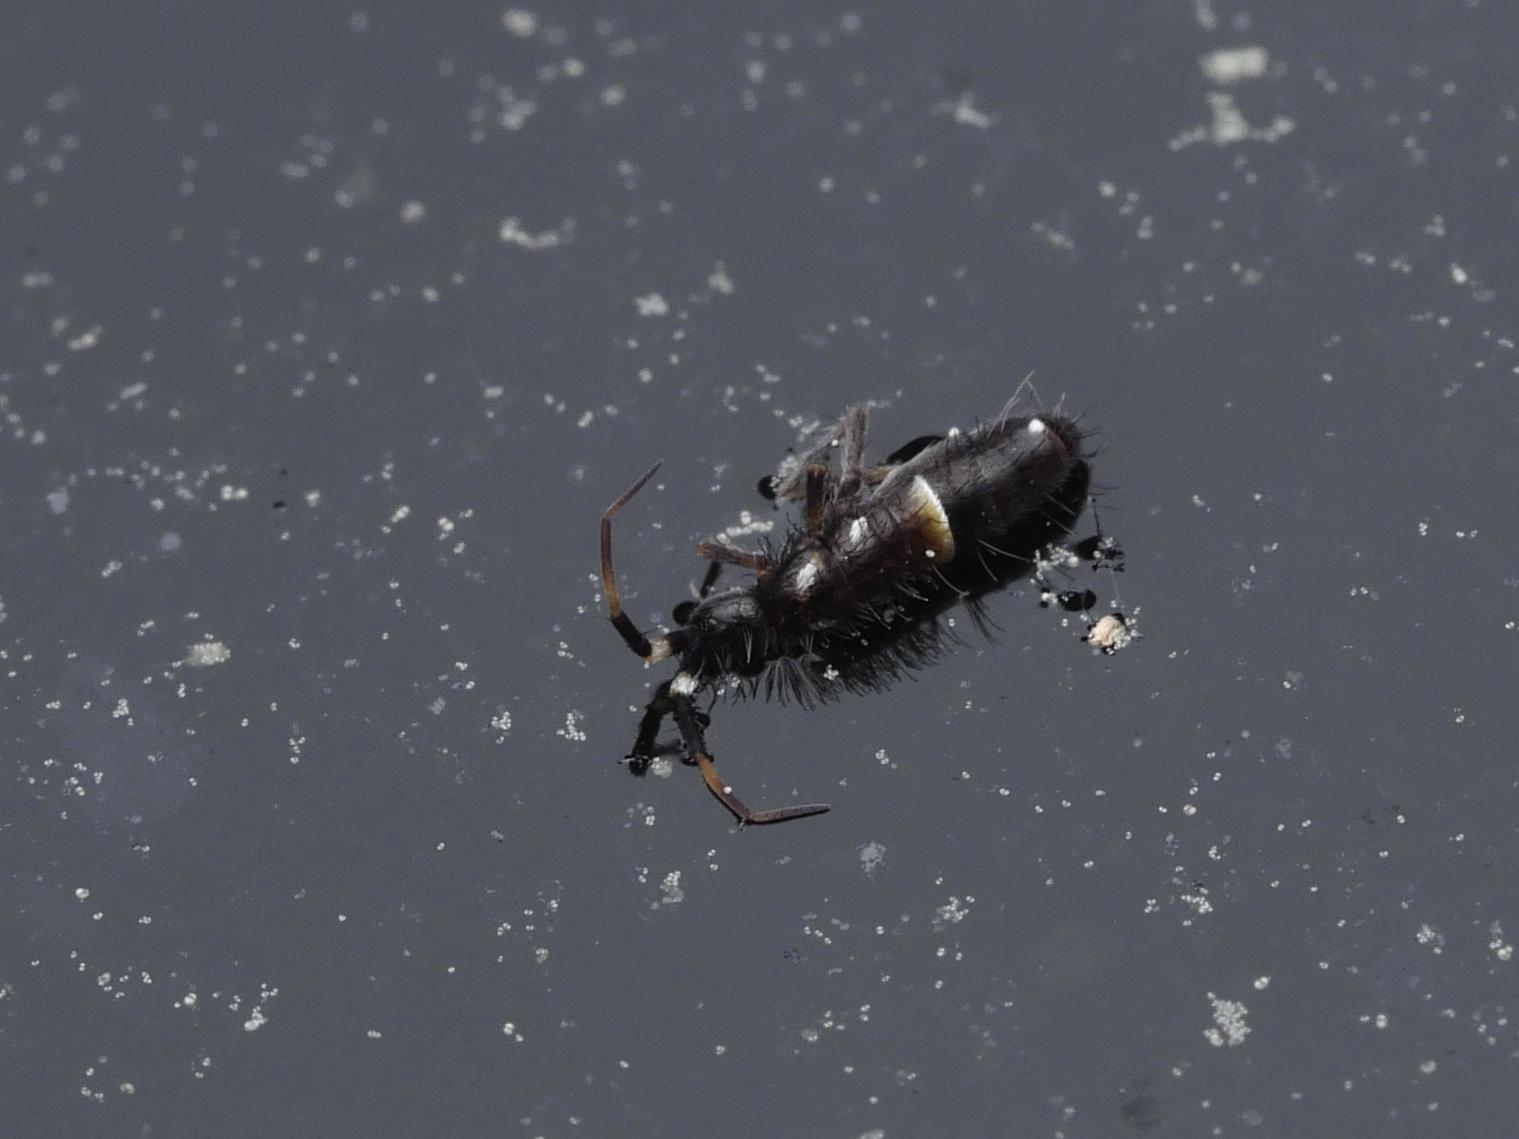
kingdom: Animalia
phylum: Arthropoda
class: Collembola
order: Entomobryomorpha
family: Orchesellidae
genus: Orchesella
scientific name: Orchesella cincta
